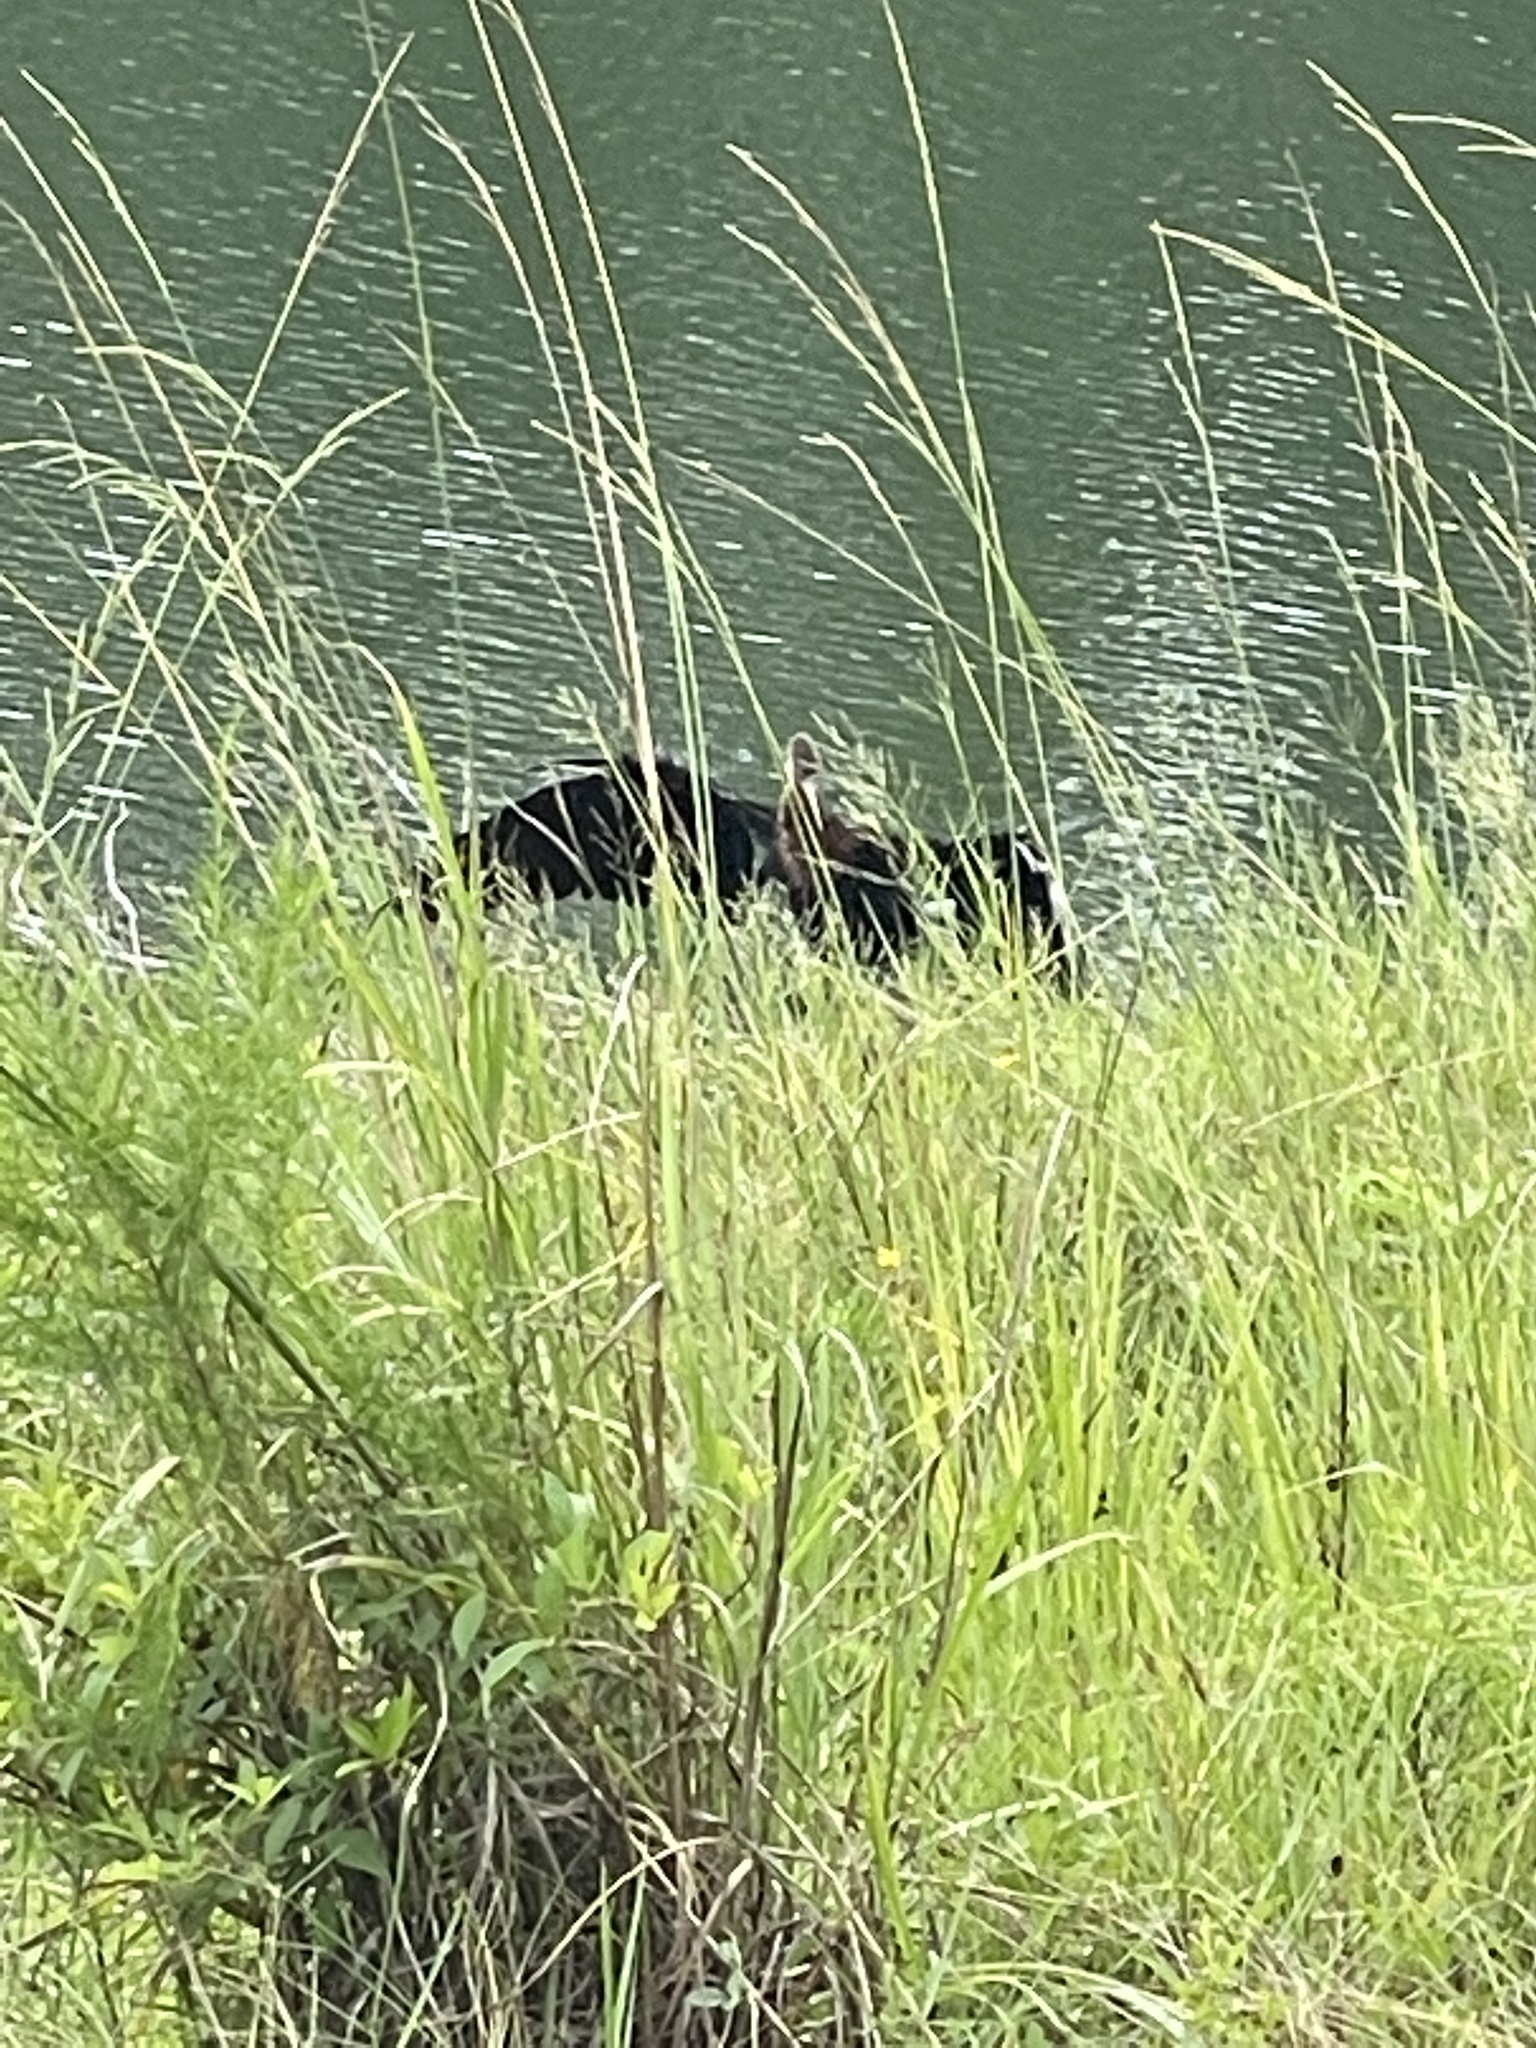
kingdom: Animalia
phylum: Chordata
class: Aves
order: Suliformes
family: Anhingidae
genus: Anhinga
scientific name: Anhinga anhinga
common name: Anhinga
